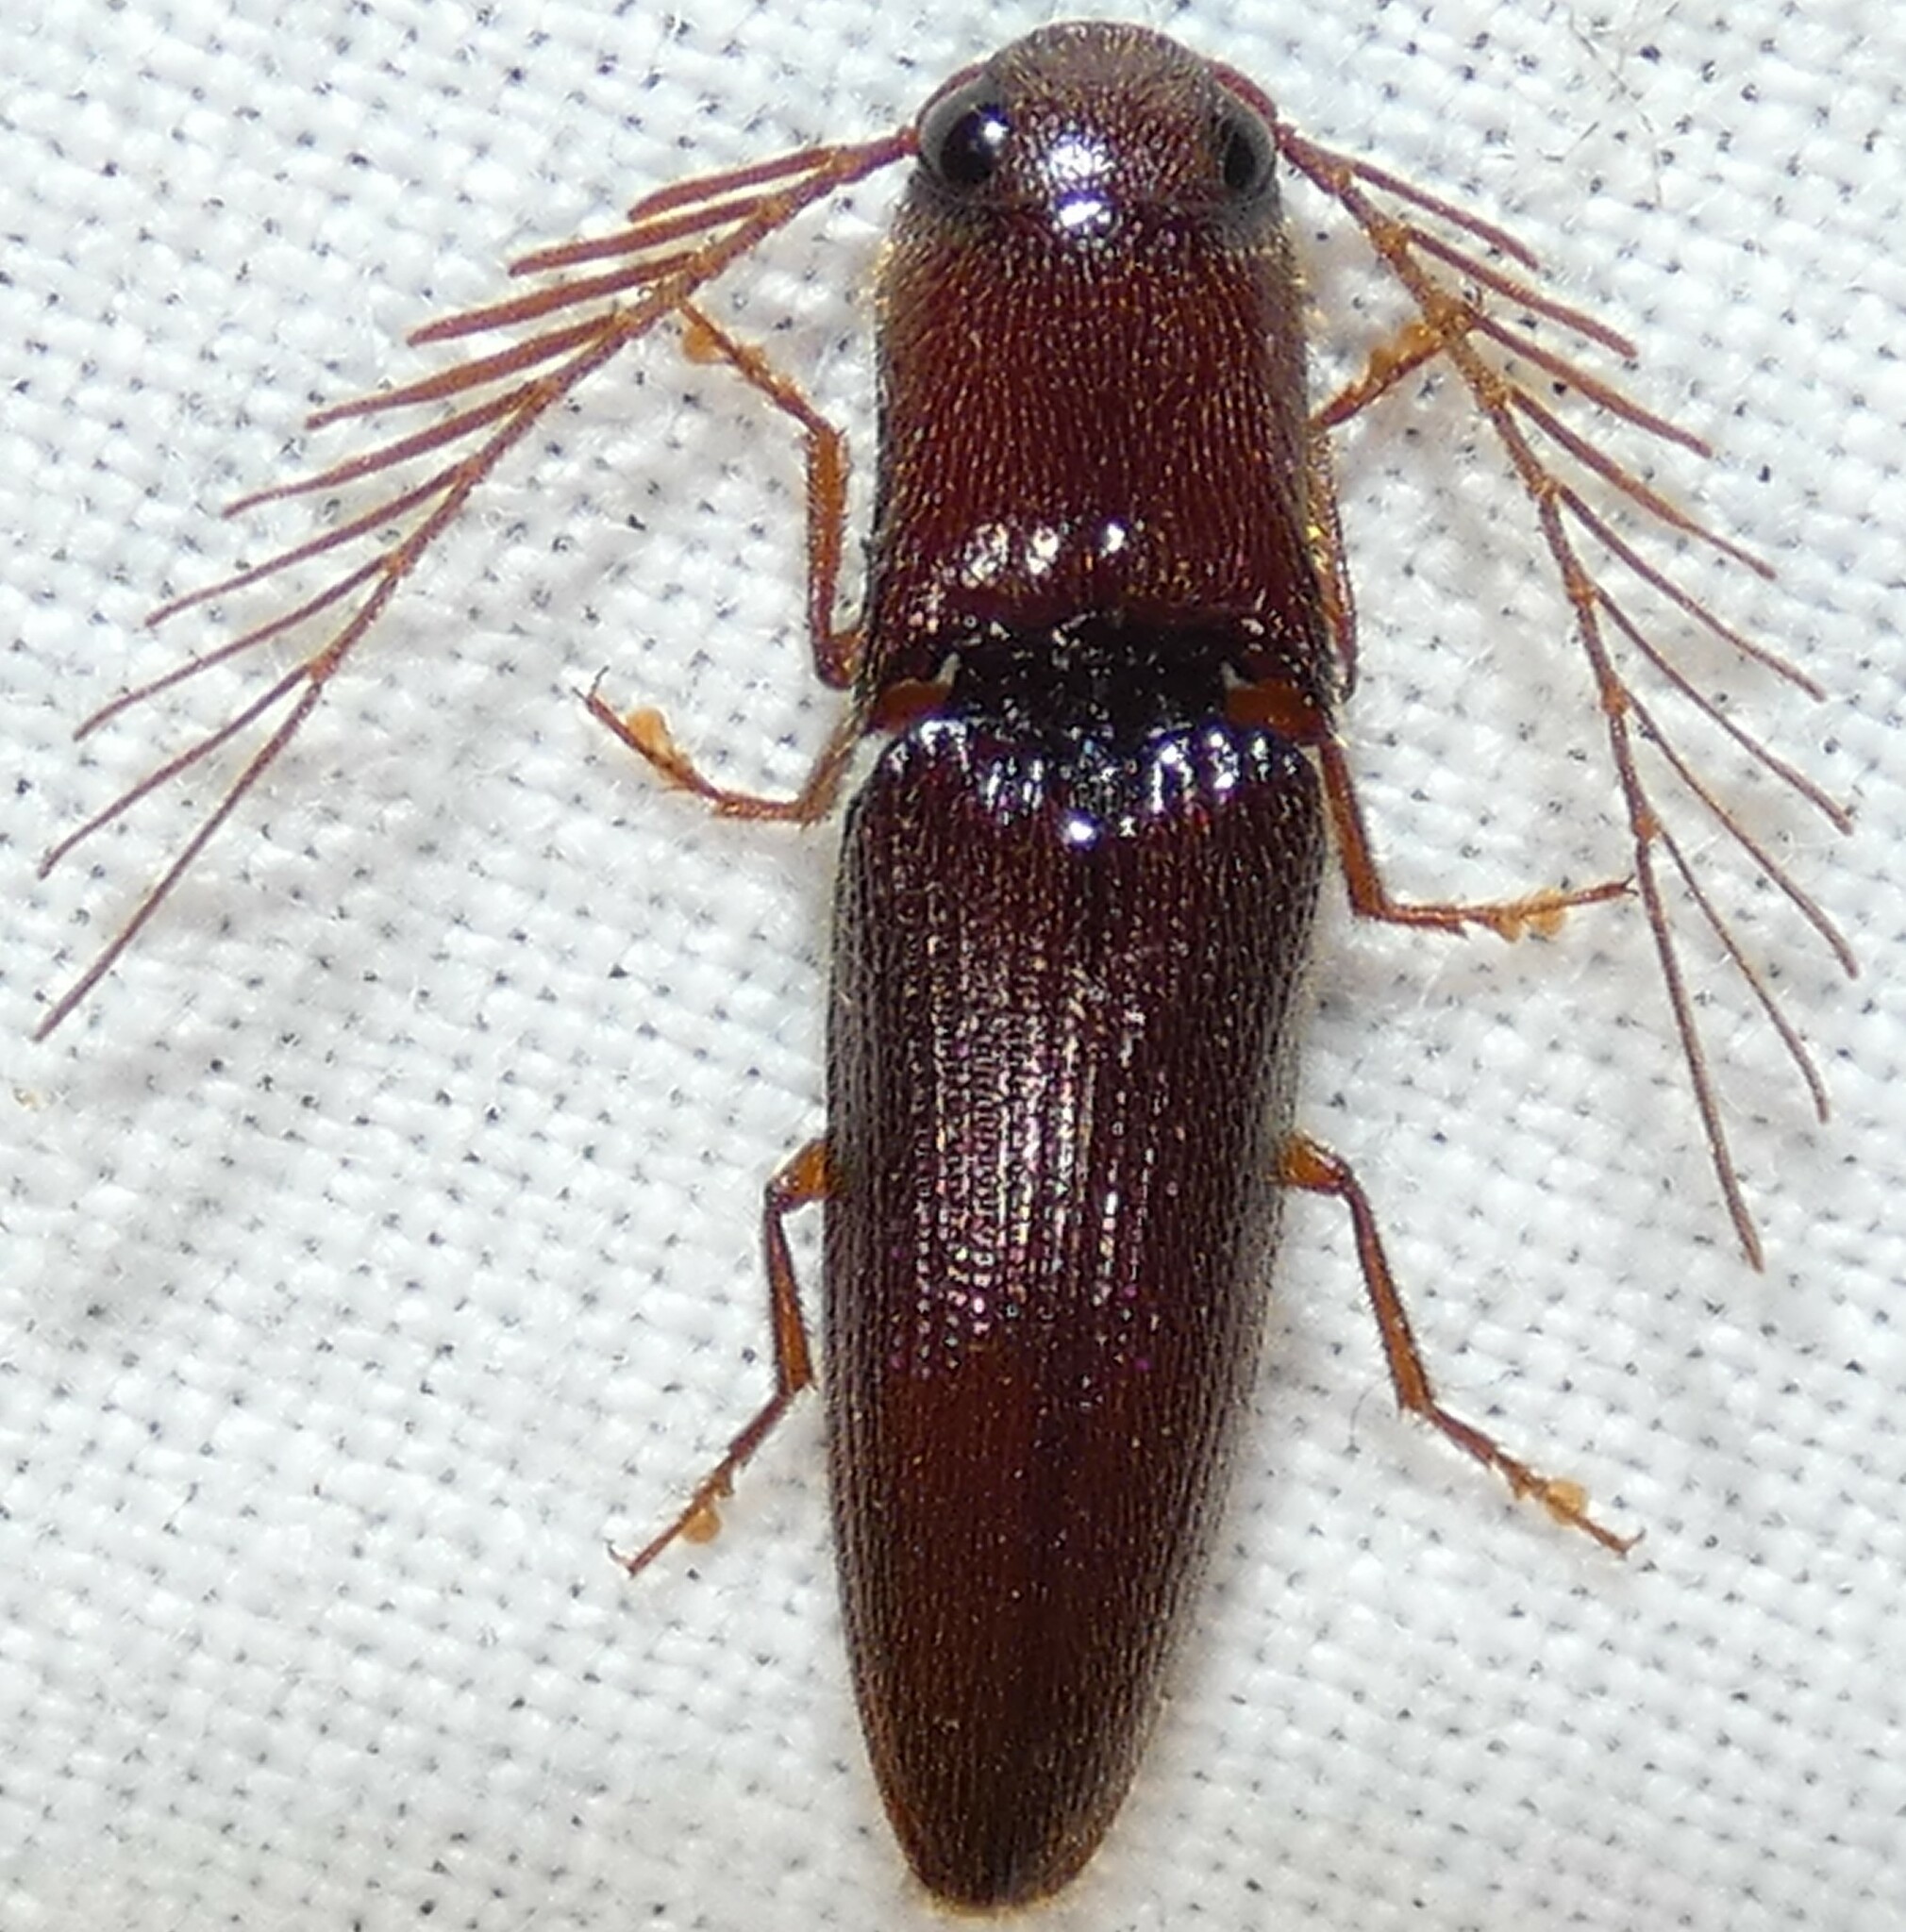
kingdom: Animalia
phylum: Arthropoda
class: Insecta
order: Coleoptera
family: Elateridae
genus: Dicrepidius
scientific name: Dicrepidius palmatus
